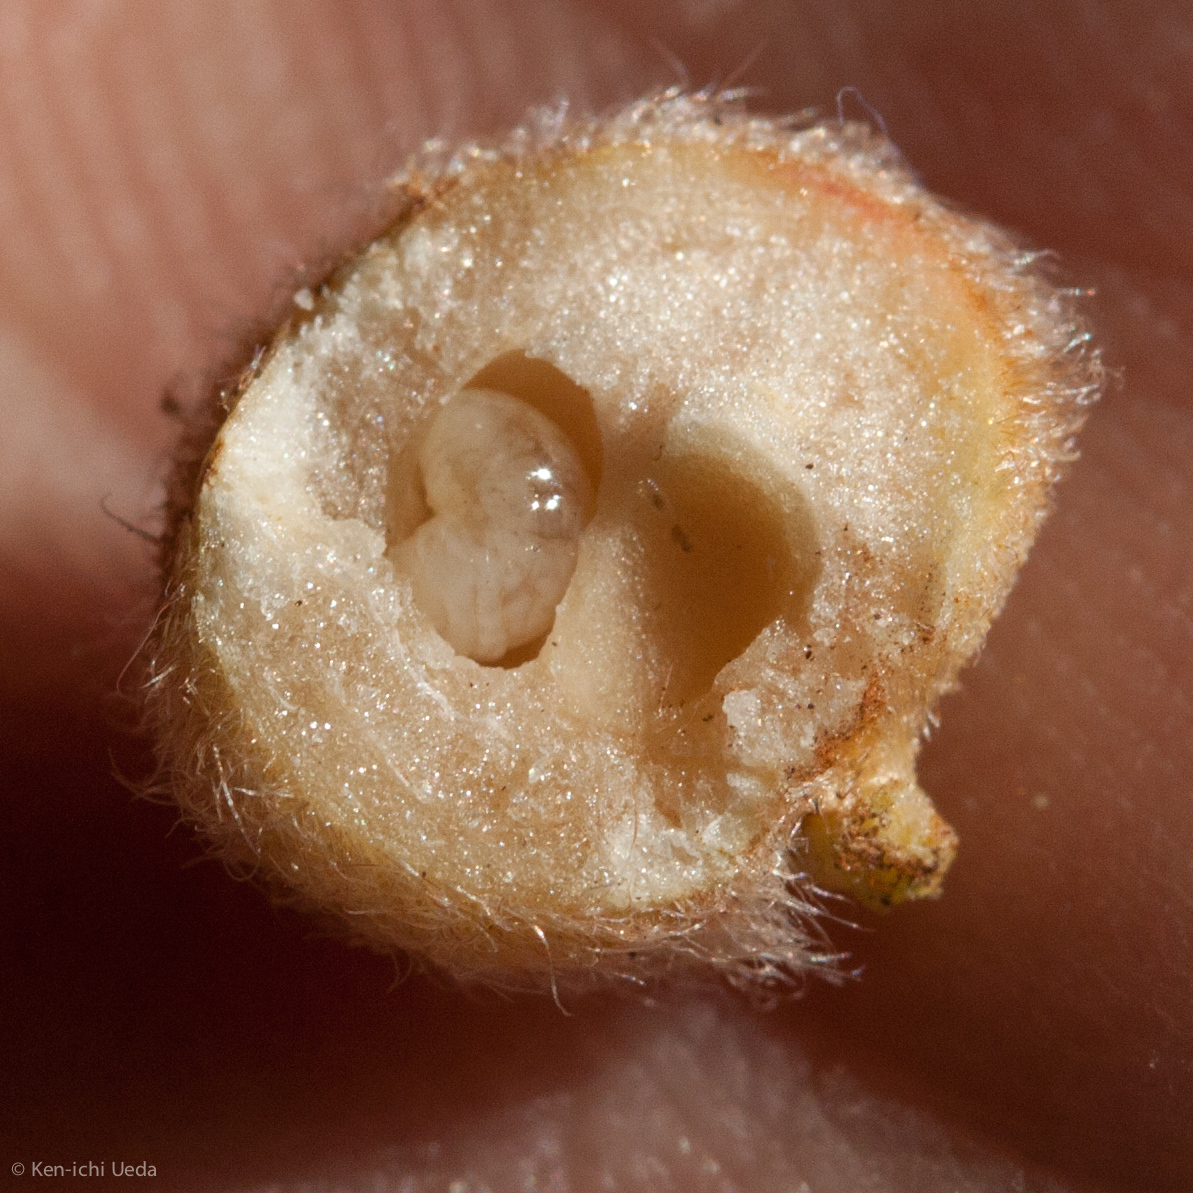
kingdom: Animalia
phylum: Arthropoda
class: Insecta
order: Hymenoptera
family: Cynipidae
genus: Disholandricus
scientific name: Disholandricus
